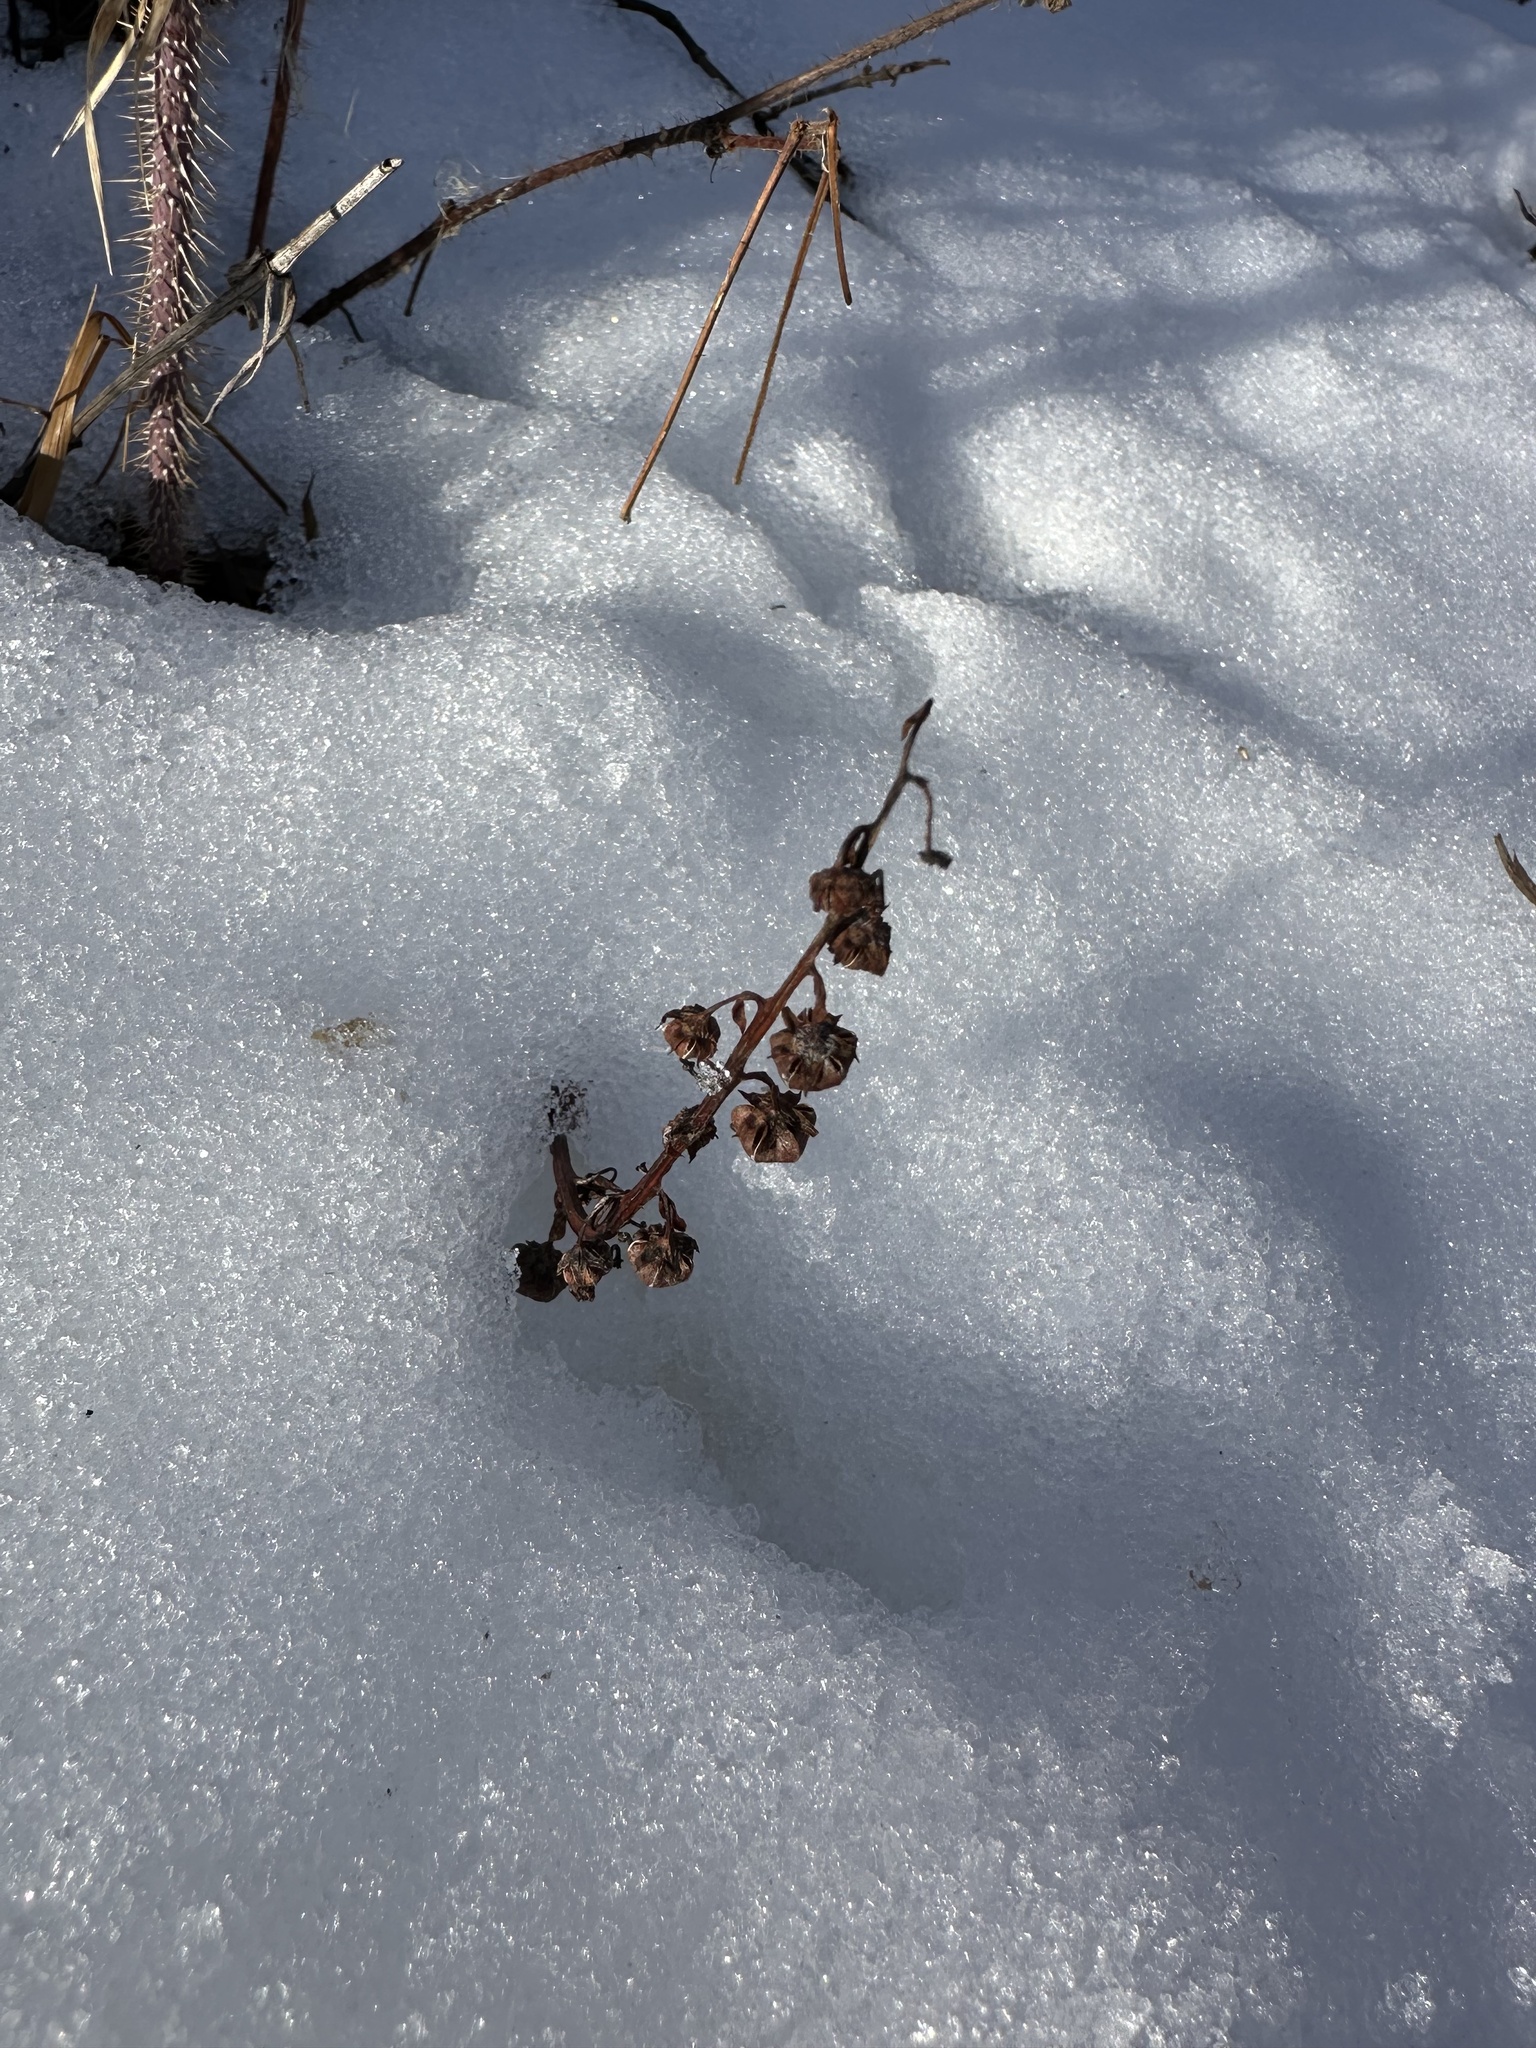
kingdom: Plantae
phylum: Tracheophyta
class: Magnoliopsida
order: Ericales
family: Ericaceae
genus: Pyrola
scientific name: Pyrola
